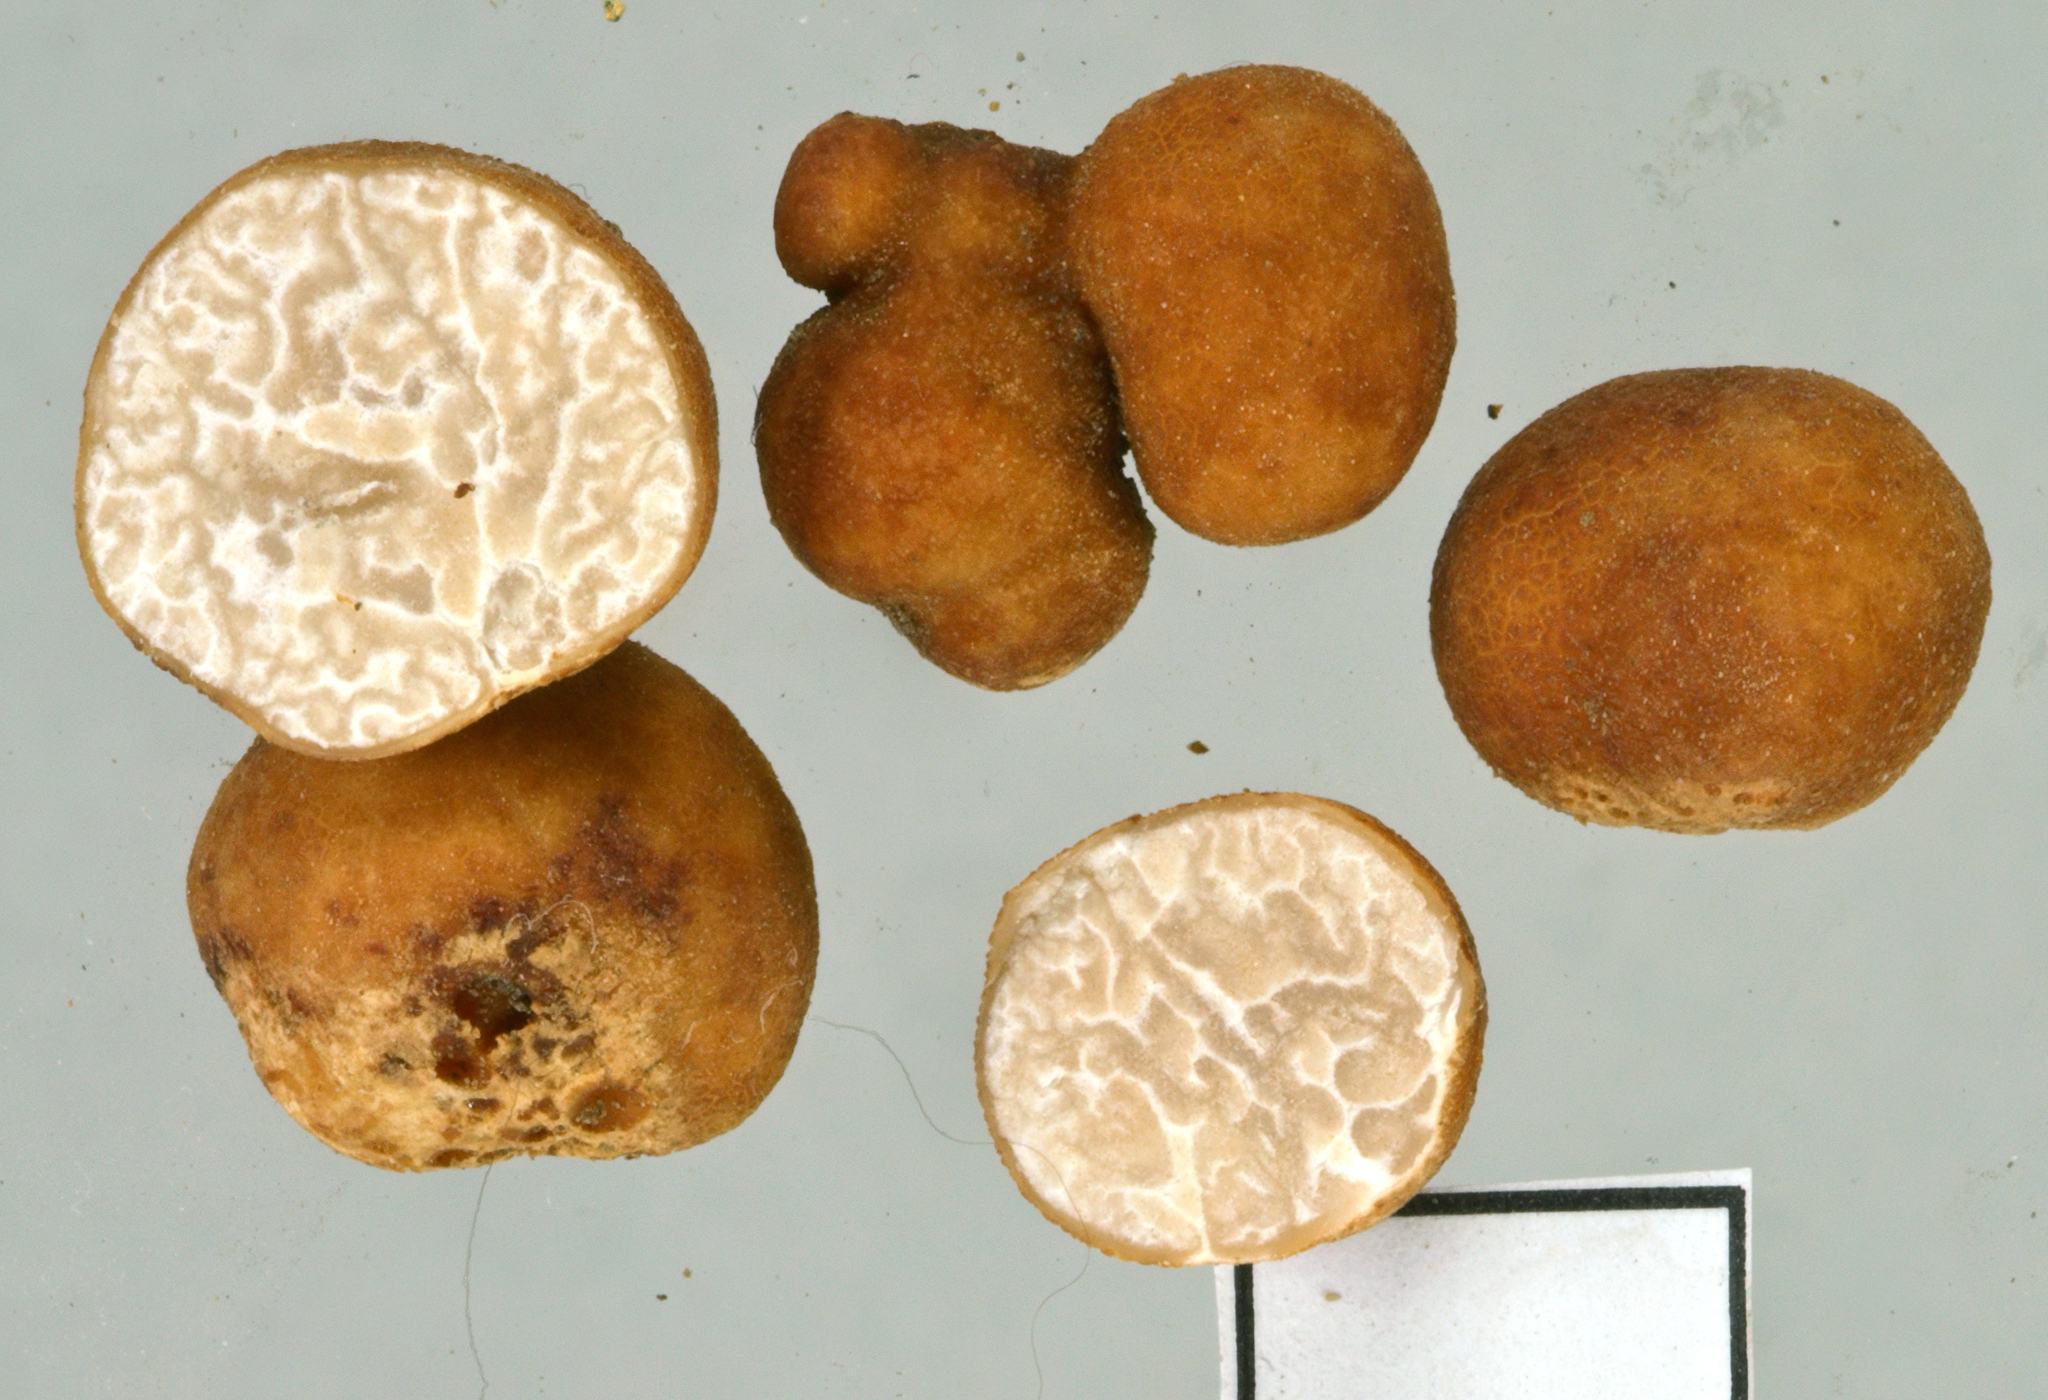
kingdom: Fungi
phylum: Ascomycota
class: Pezizomycetes
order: Pezizales
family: Tuberaceae
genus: Tuber
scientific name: Tuber rufum
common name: Red truffle
